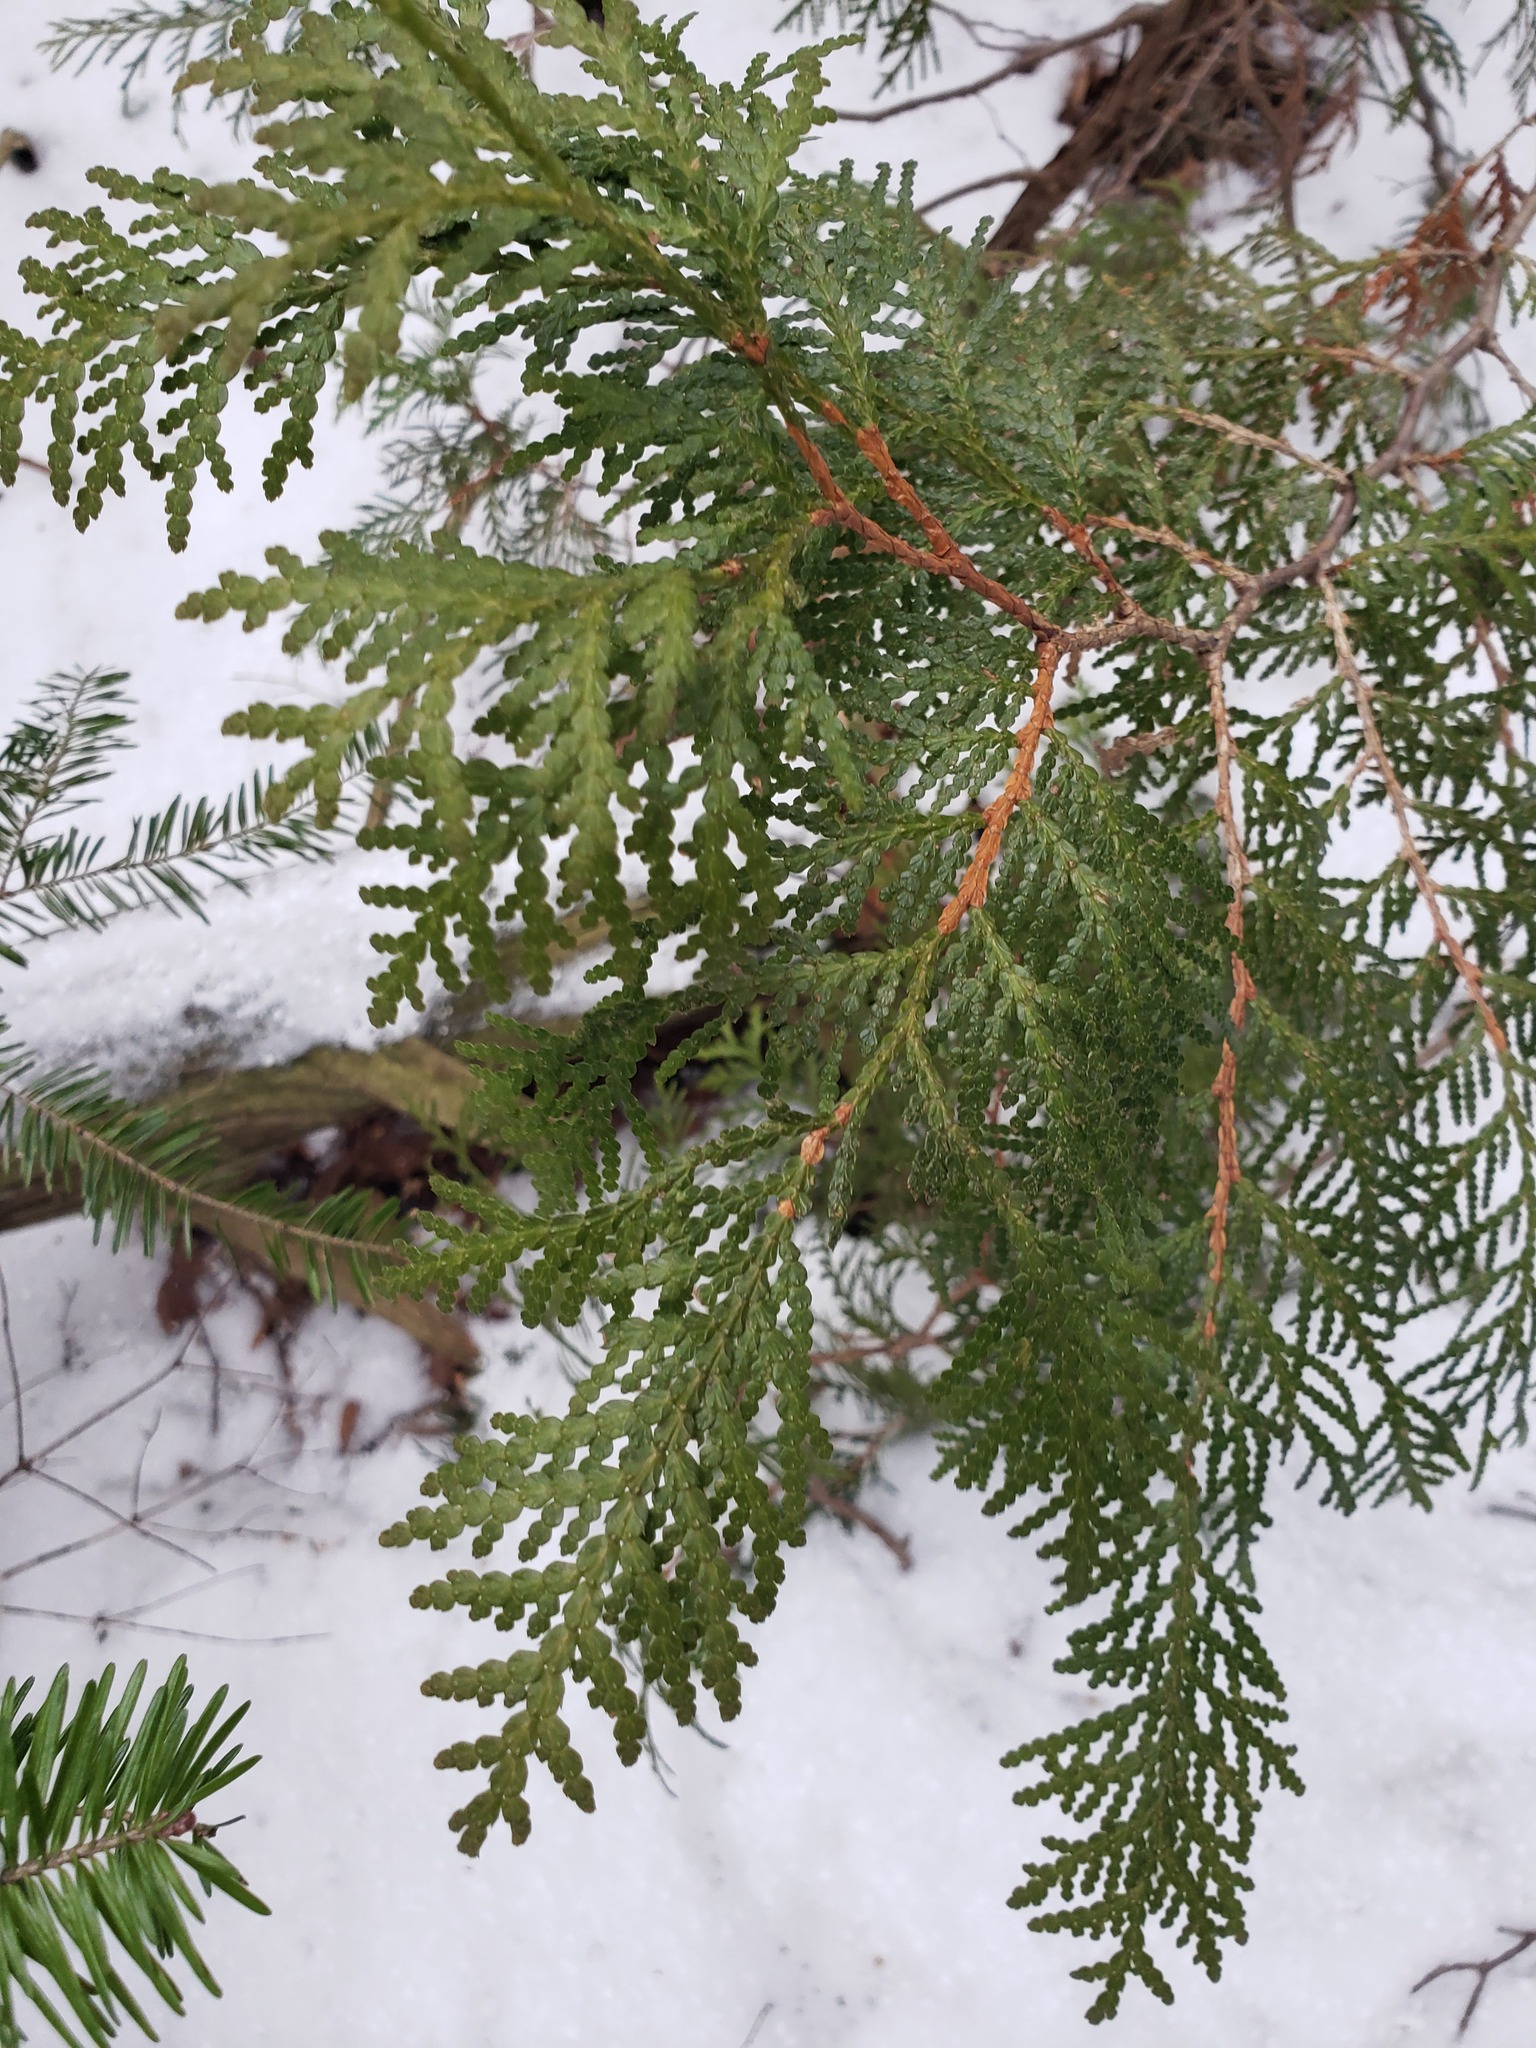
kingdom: Plantae
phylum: Tracheophyta
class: Pinopsida
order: Pinales
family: Cupressaceae
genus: Thuja
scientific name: Thuja occidentalis
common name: Northern white-cedar
